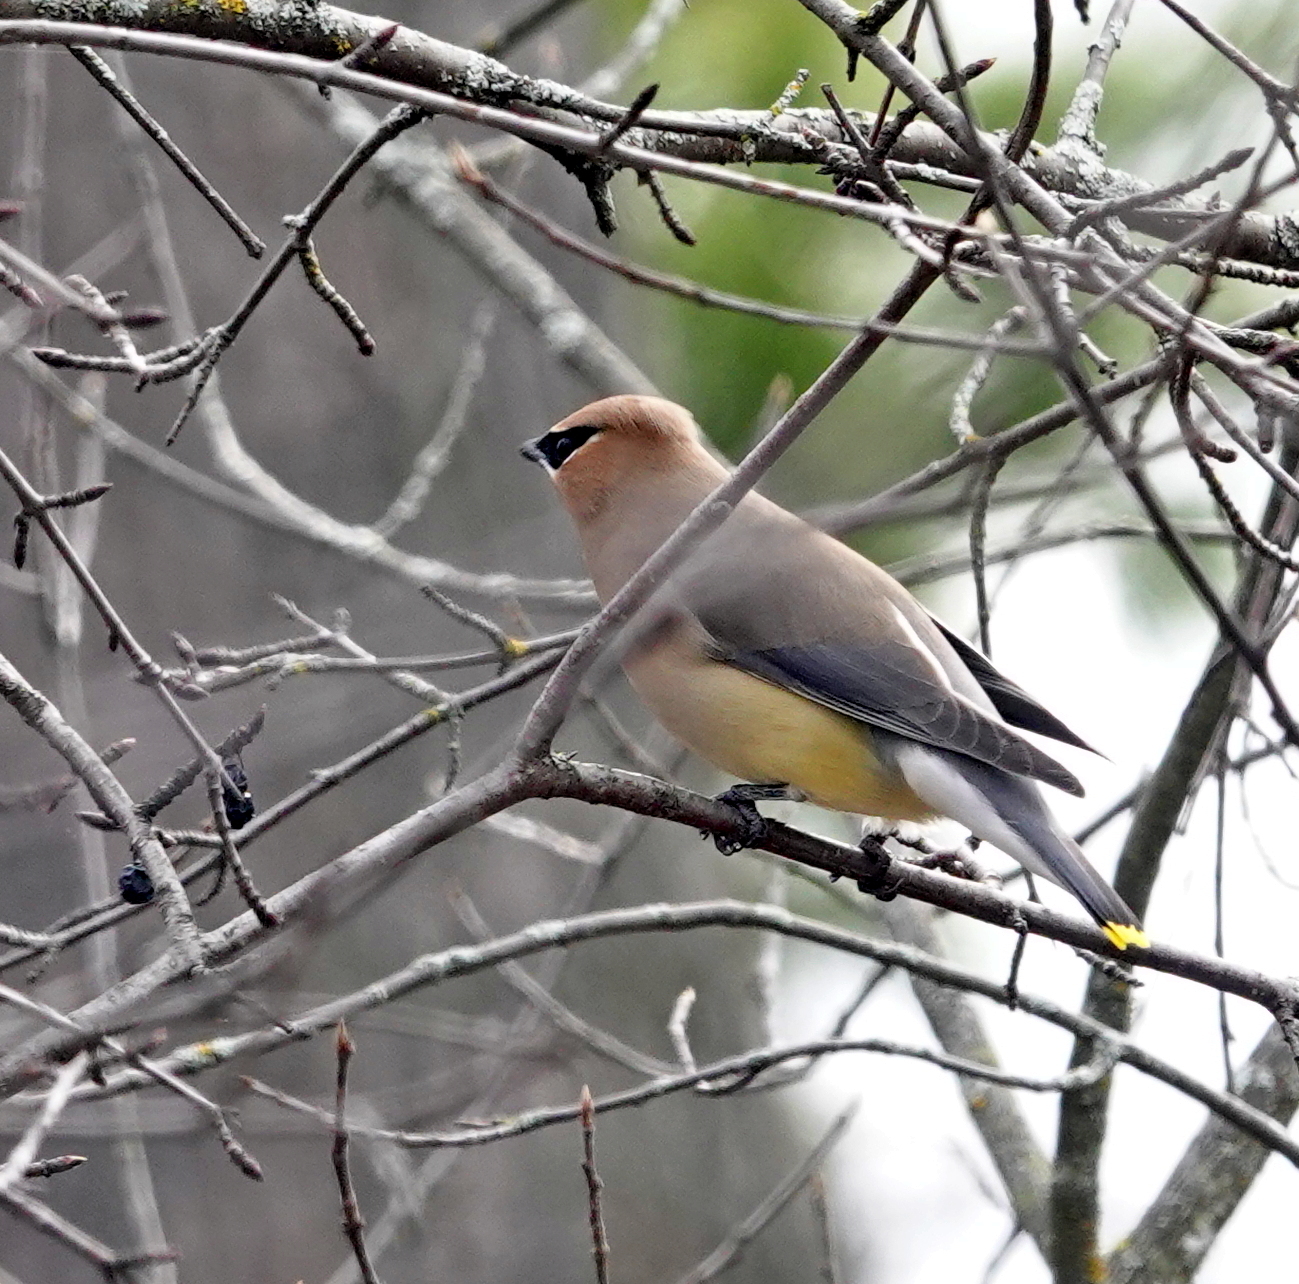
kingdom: Animalia
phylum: Chordata
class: Aves
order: Passeriformes
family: Bombycillidae
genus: Bombycilla
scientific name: Bombycilla cedrorum
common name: Cedar waxwing
